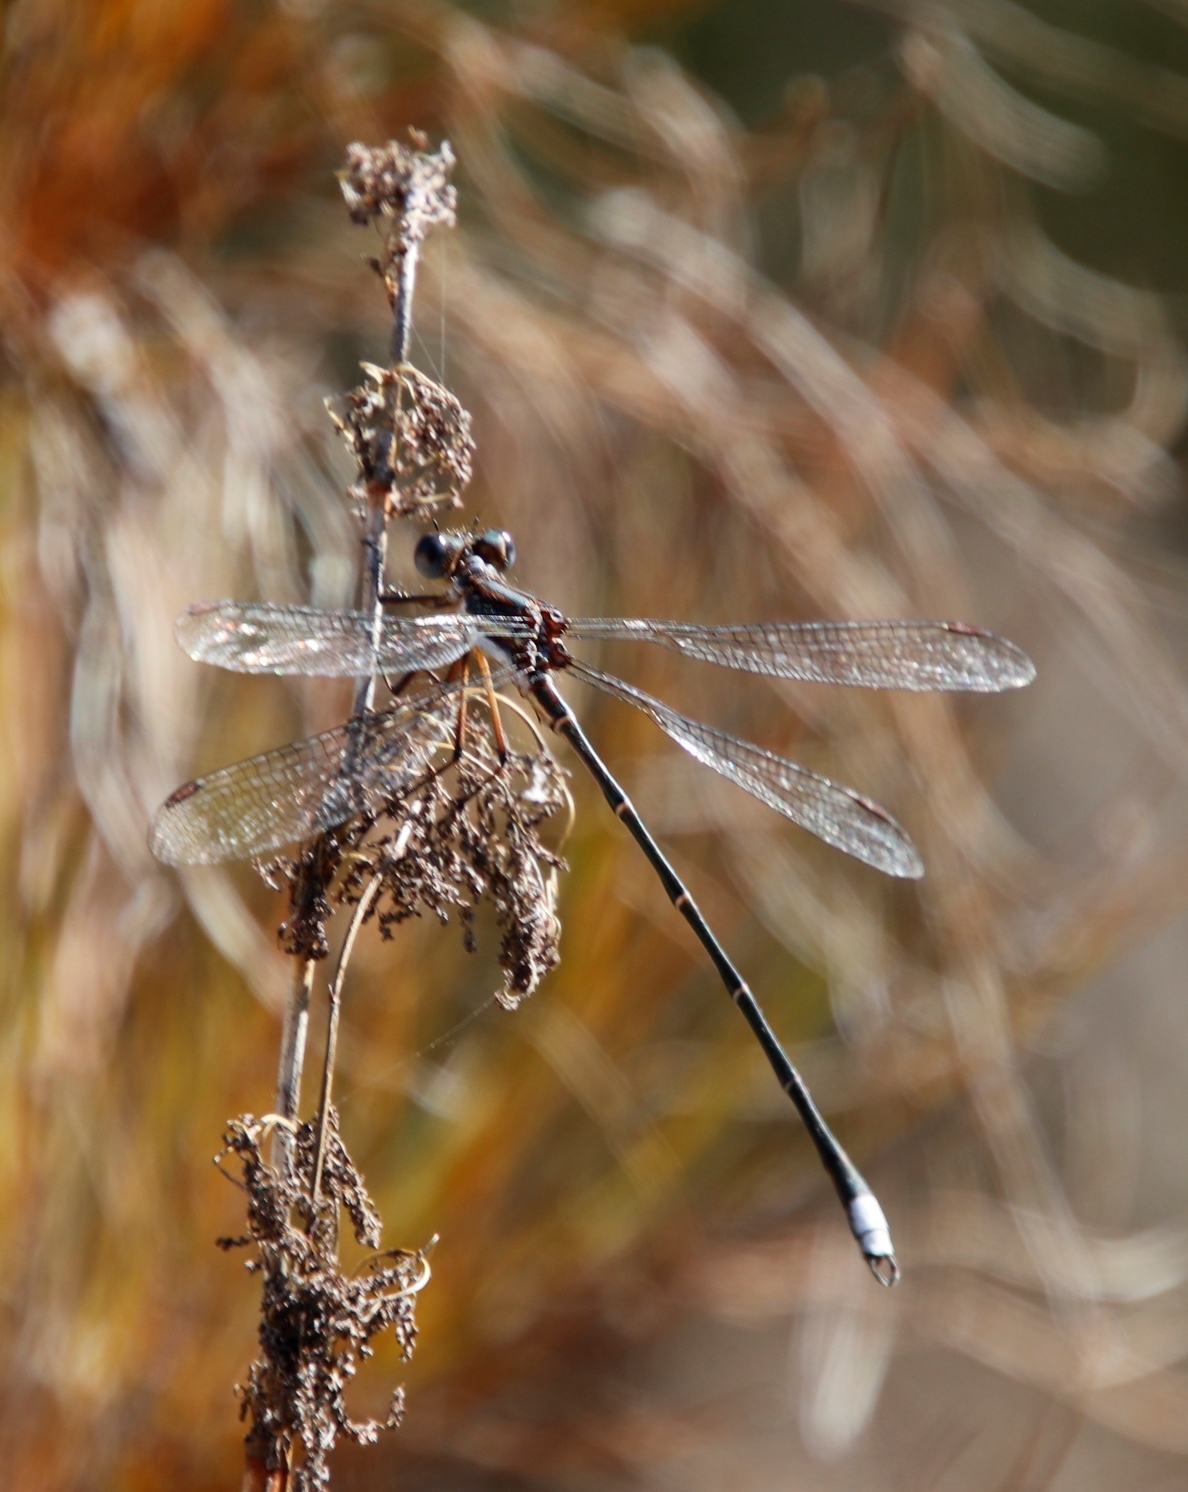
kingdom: Animalia
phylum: Arthropoda
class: Insecta
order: Odonata
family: Synlestidae
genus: Chlorolestes
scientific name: Chlorolestes conspicuus
